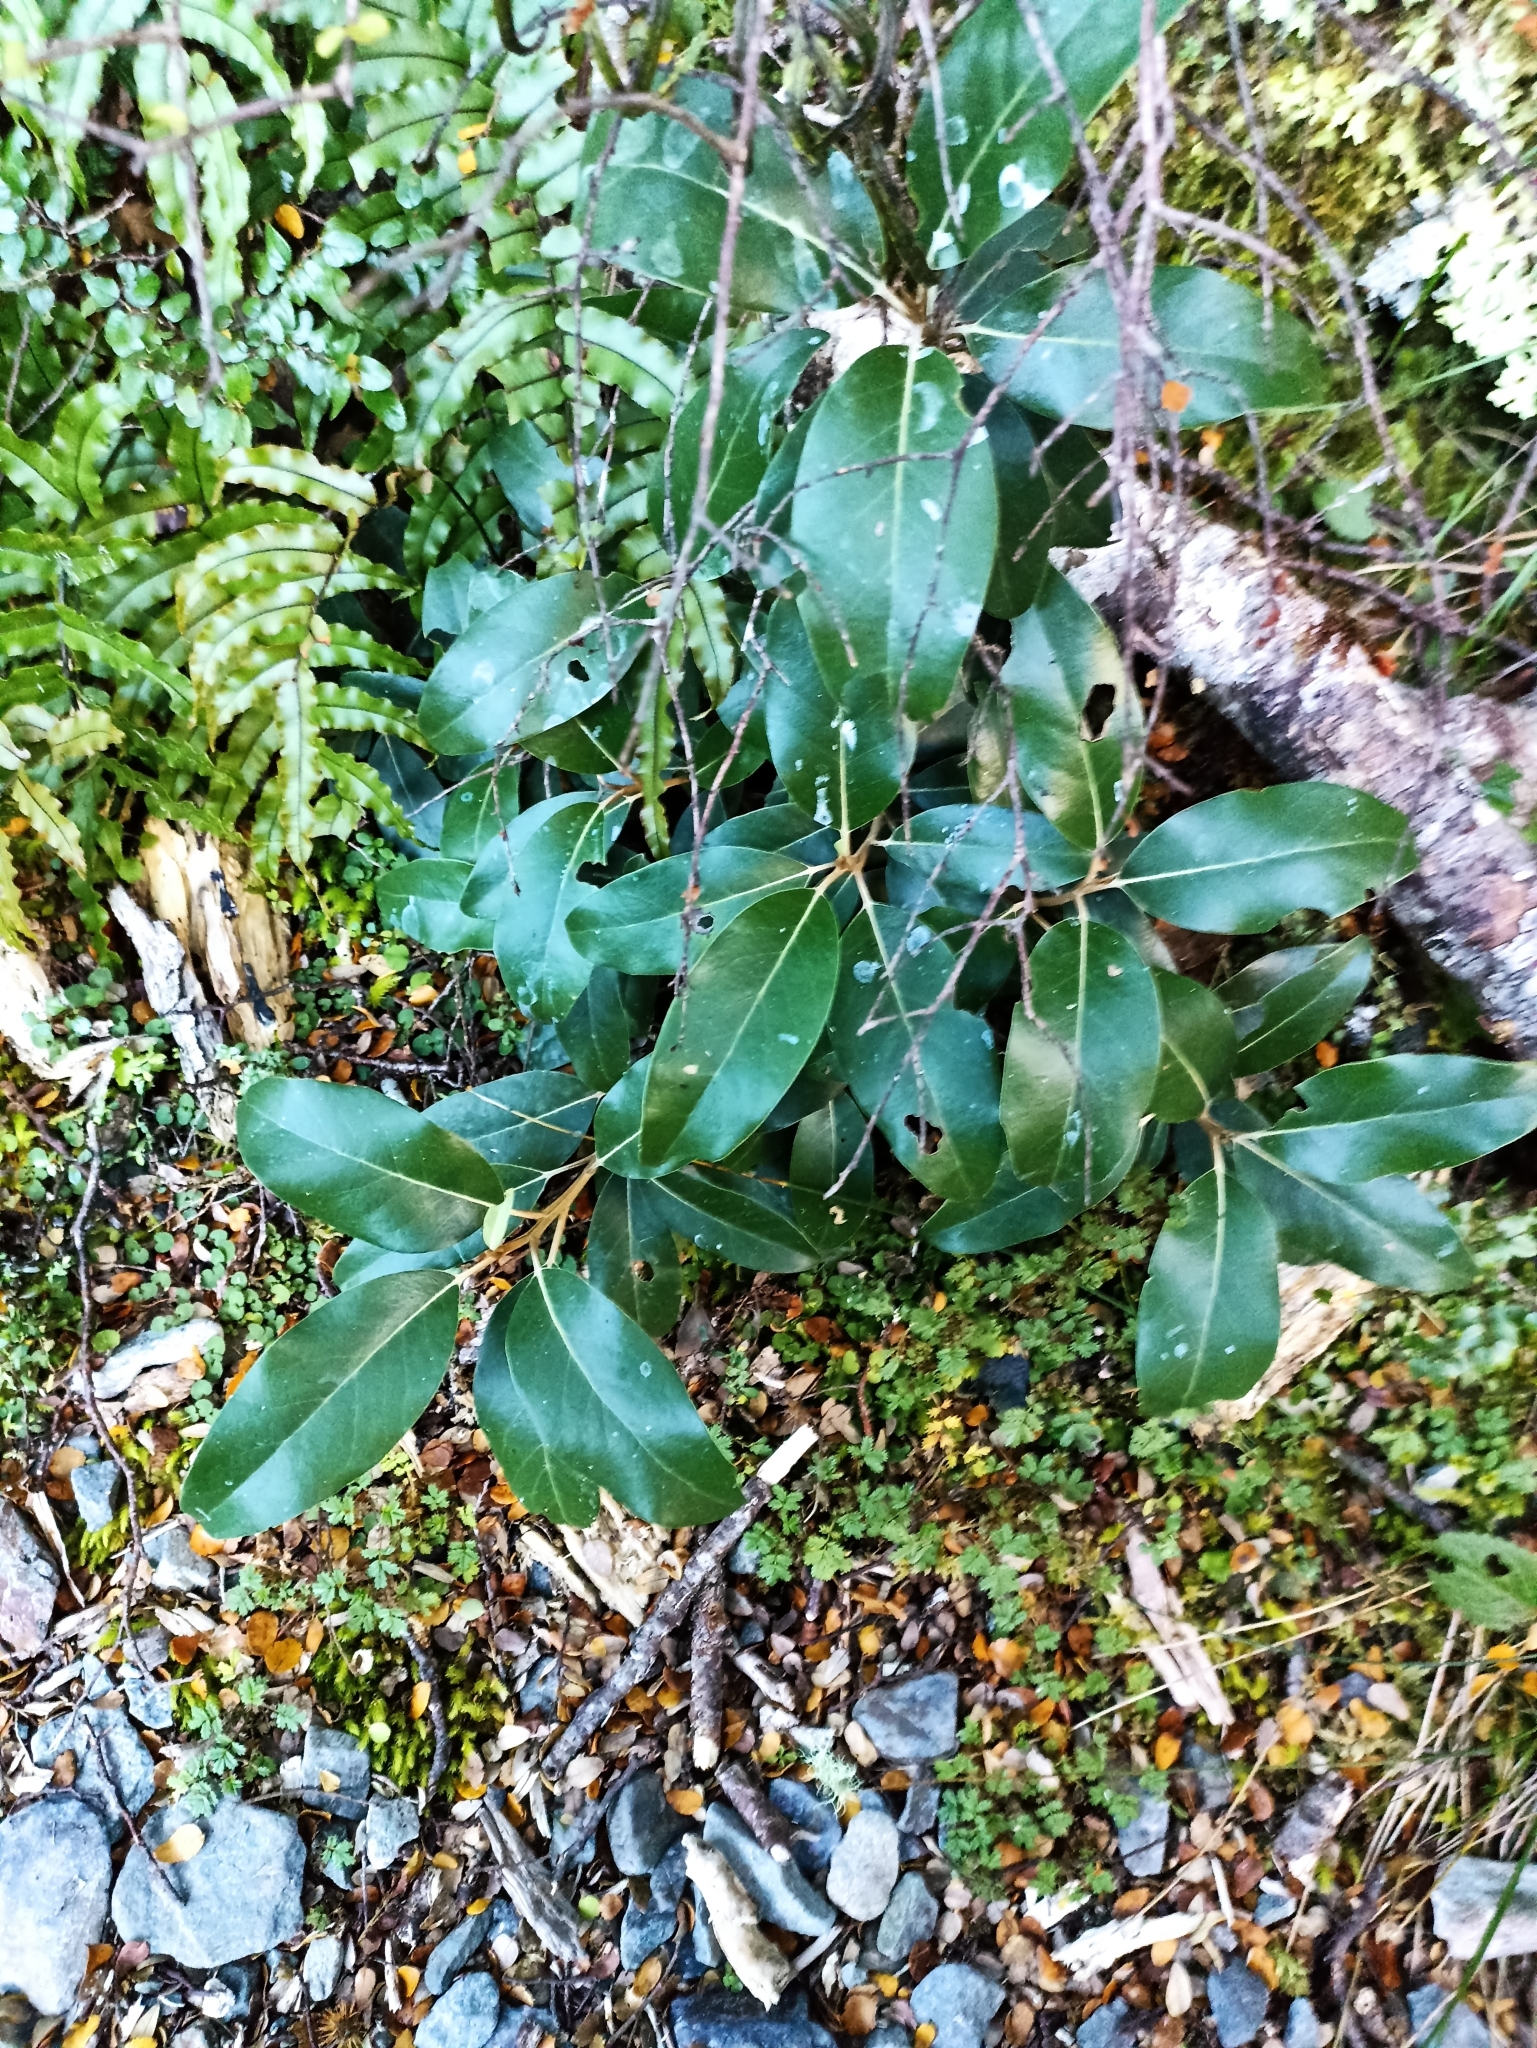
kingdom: Plantae
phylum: Tracheophyta
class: Magnoliopsida
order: Asterales
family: Asteraceae
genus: Olearia
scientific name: Olearia avicenniifolia
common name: Mangrove-leaf daisybush
